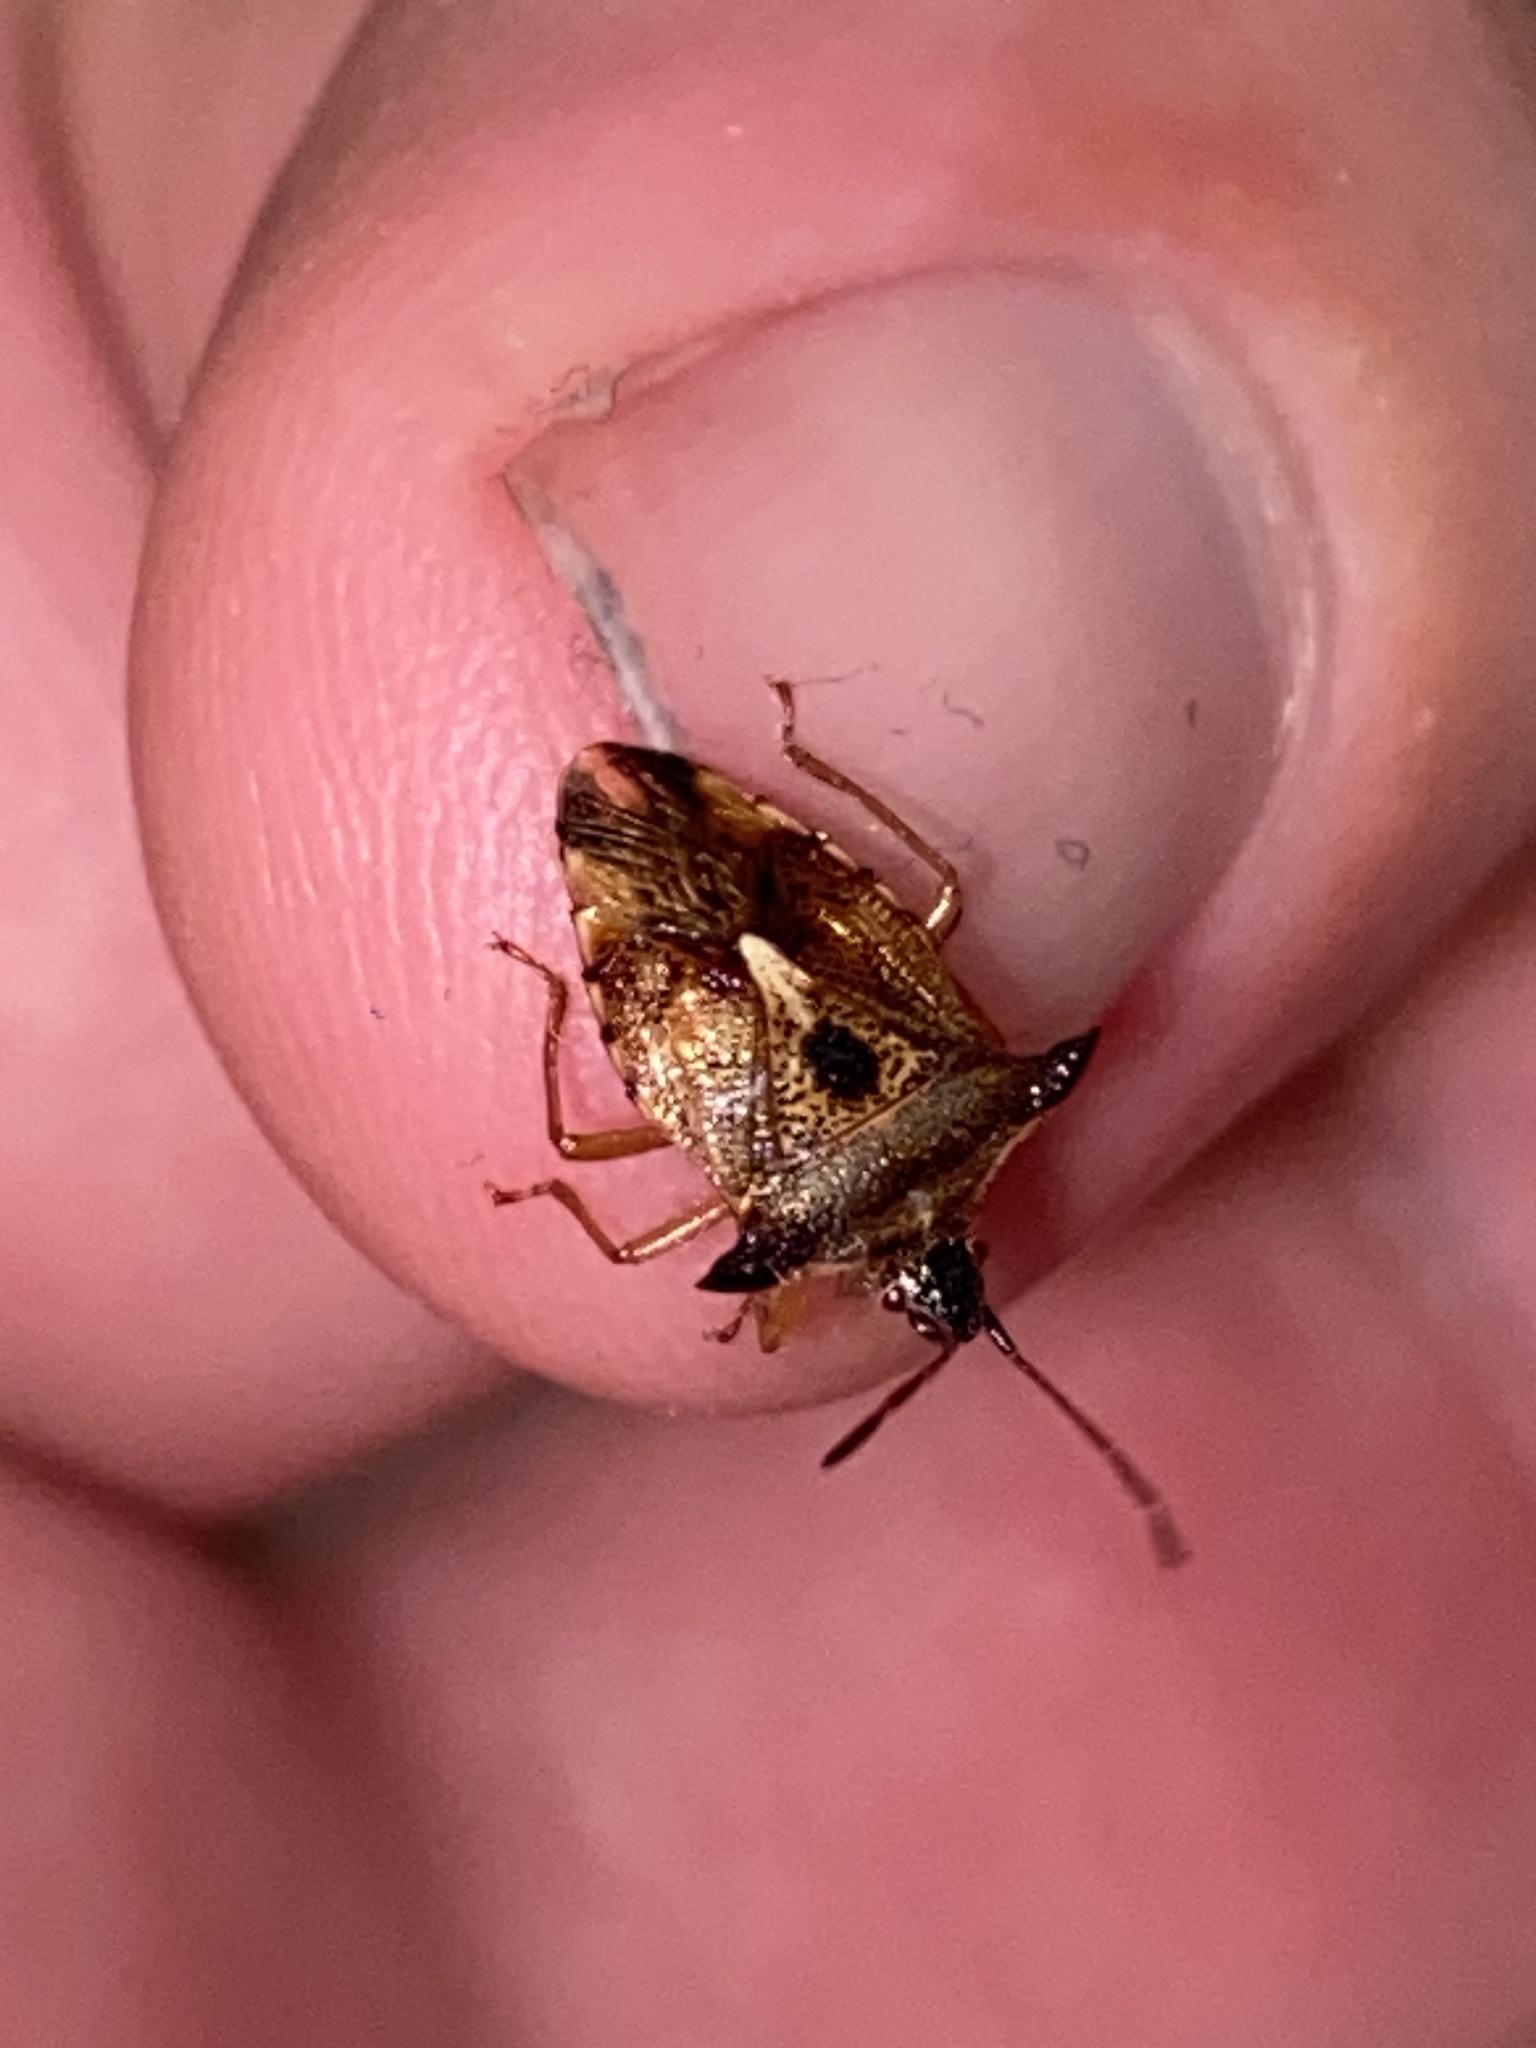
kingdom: Animalia
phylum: Arthropoda
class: Insecta
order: Hemiptera
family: Acanthosomatidae
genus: Elasmucha
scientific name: Elasmucha ferrugata
